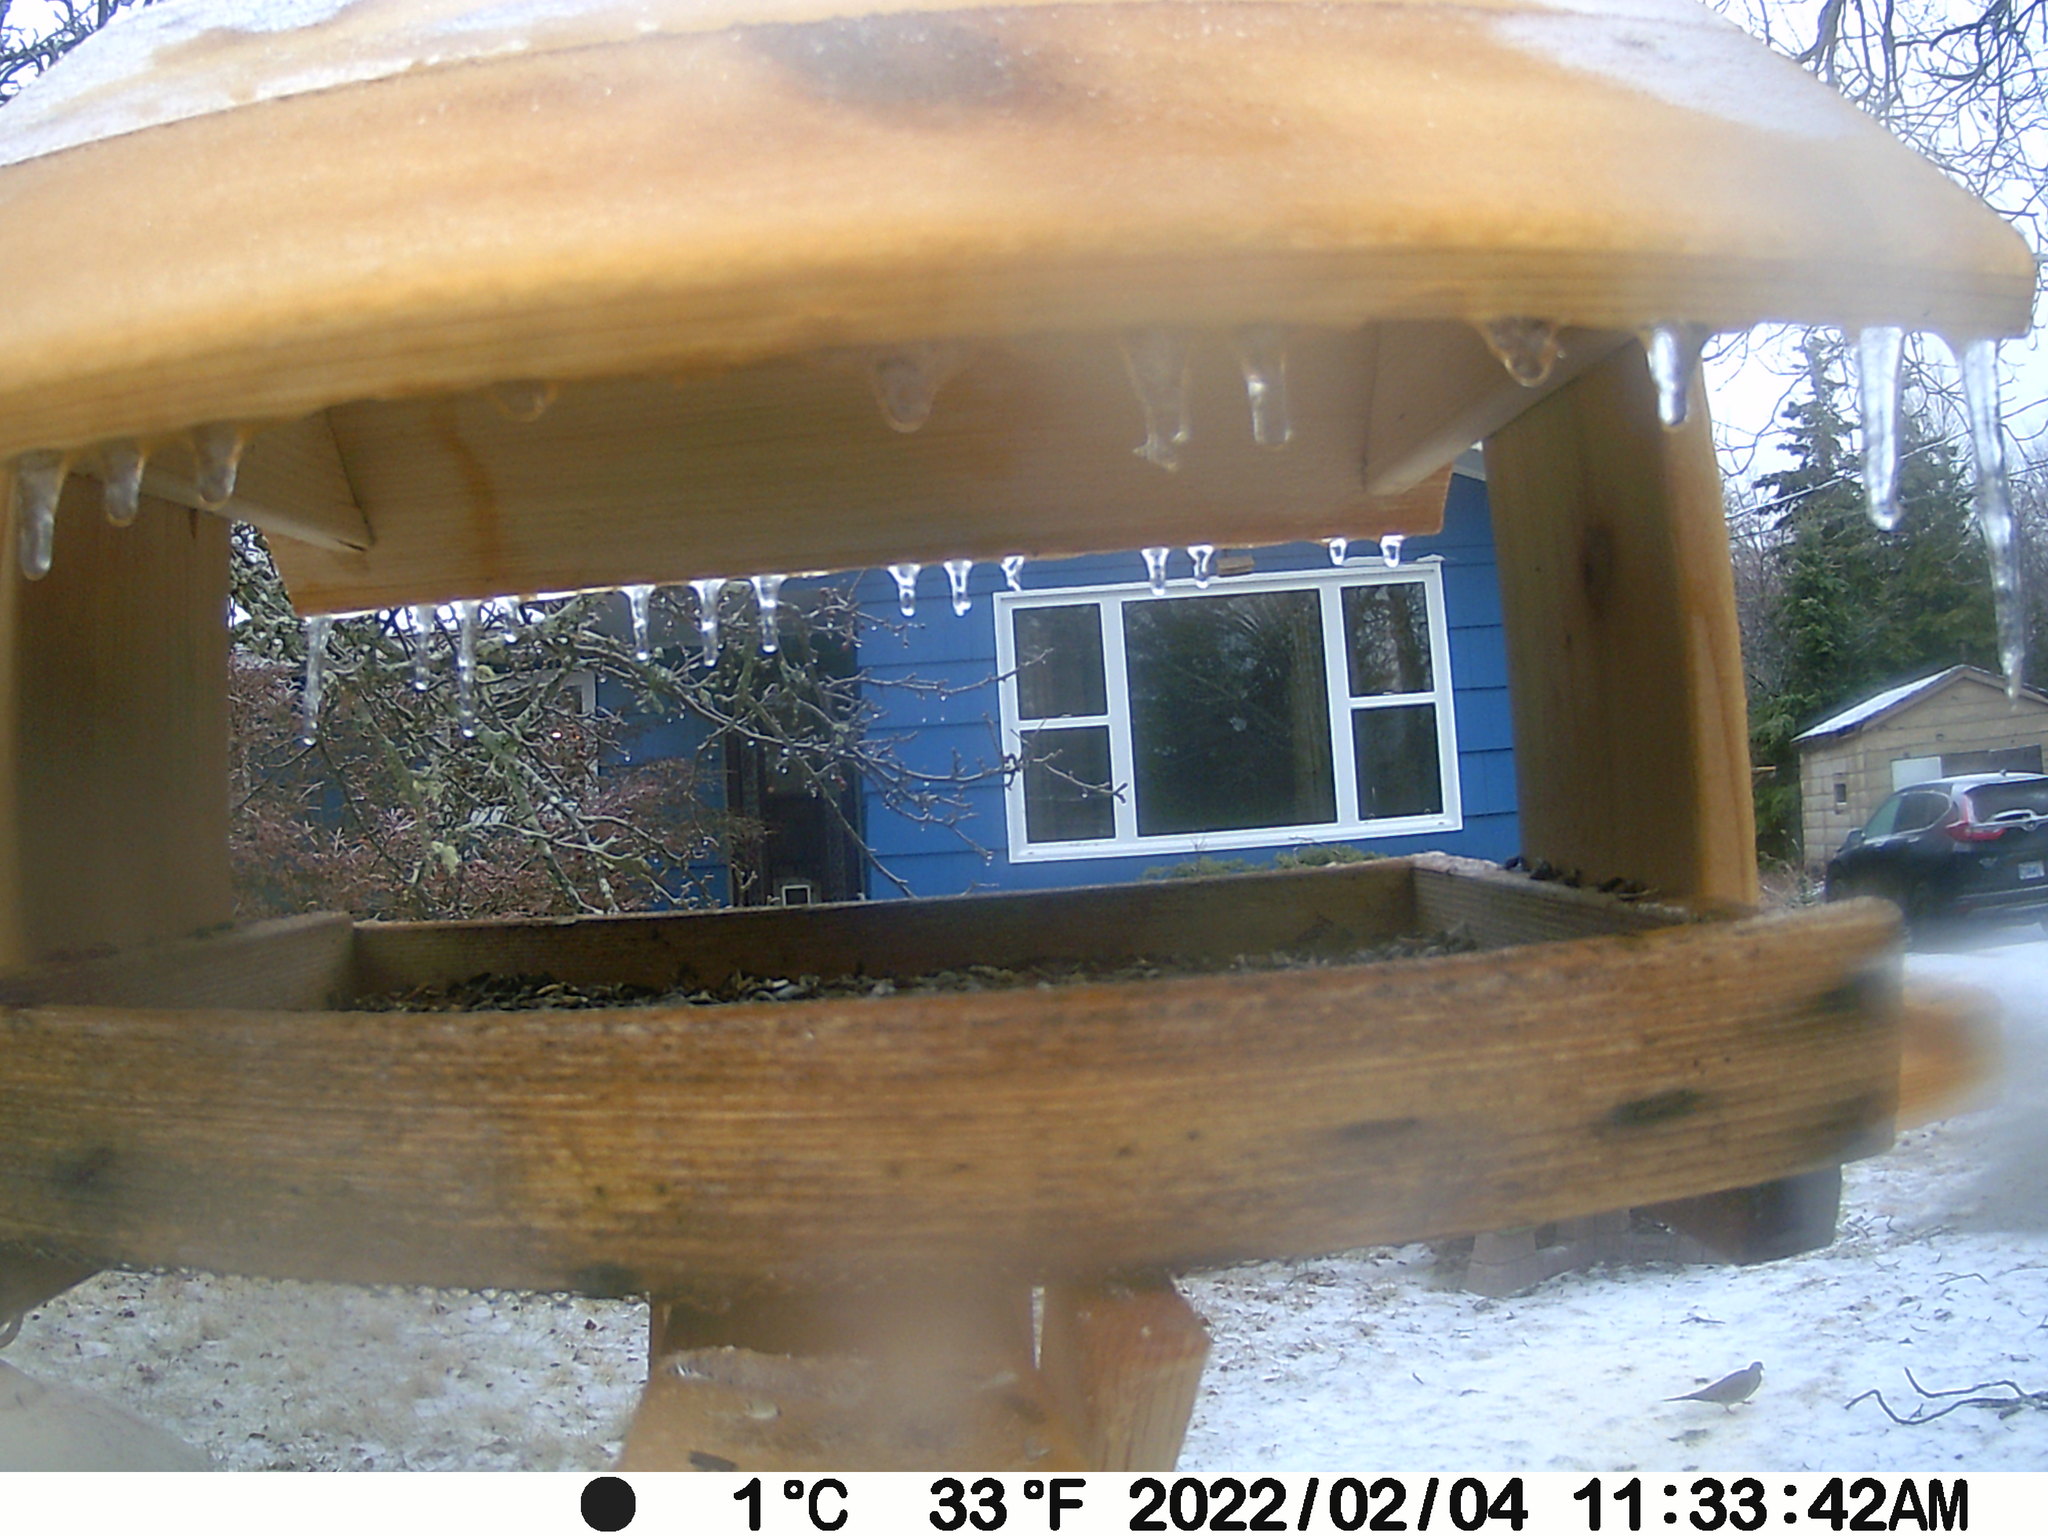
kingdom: Animalia
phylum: Chordata
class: Aves
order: Columbiformes
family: Columbidae
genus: Zenaida
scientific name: Zenaida macroura
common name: Mourning dove
